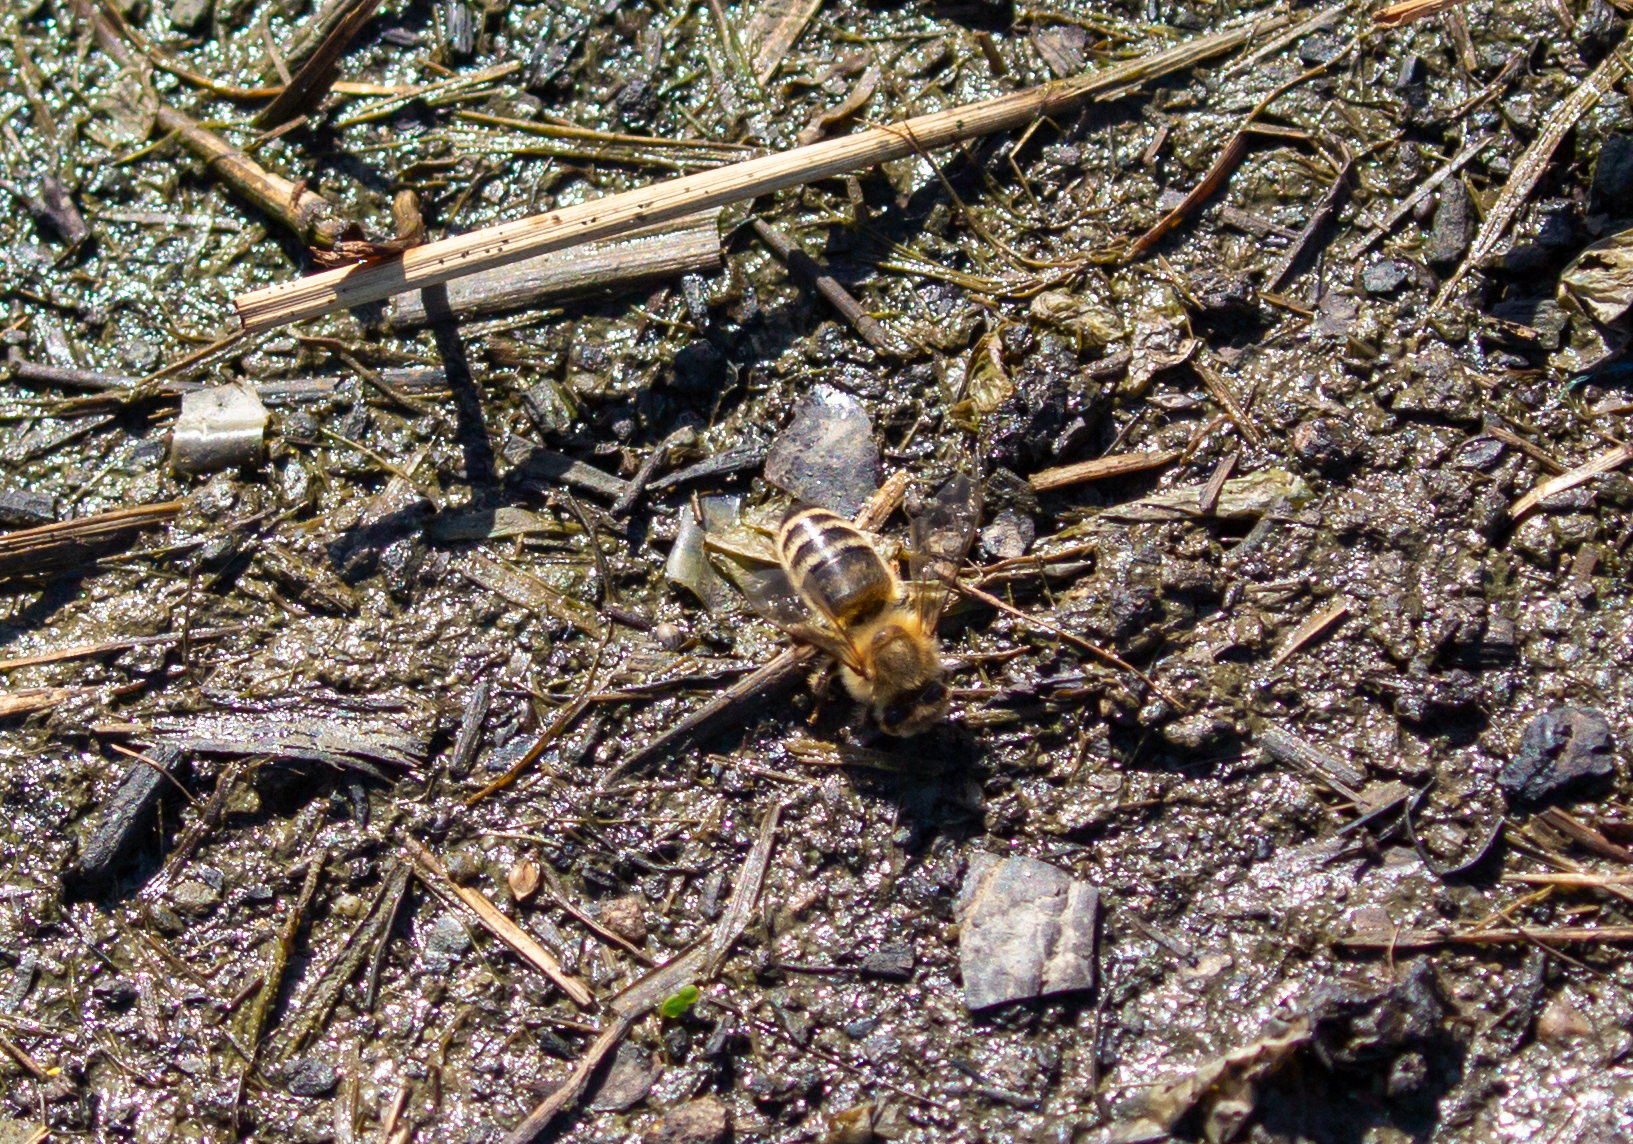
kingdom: Animalia
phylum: Arthropoda
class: Insecta
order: Hymenoptera
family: Apidae
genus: Apis
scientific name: Apis mellifera
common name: Honey bee
